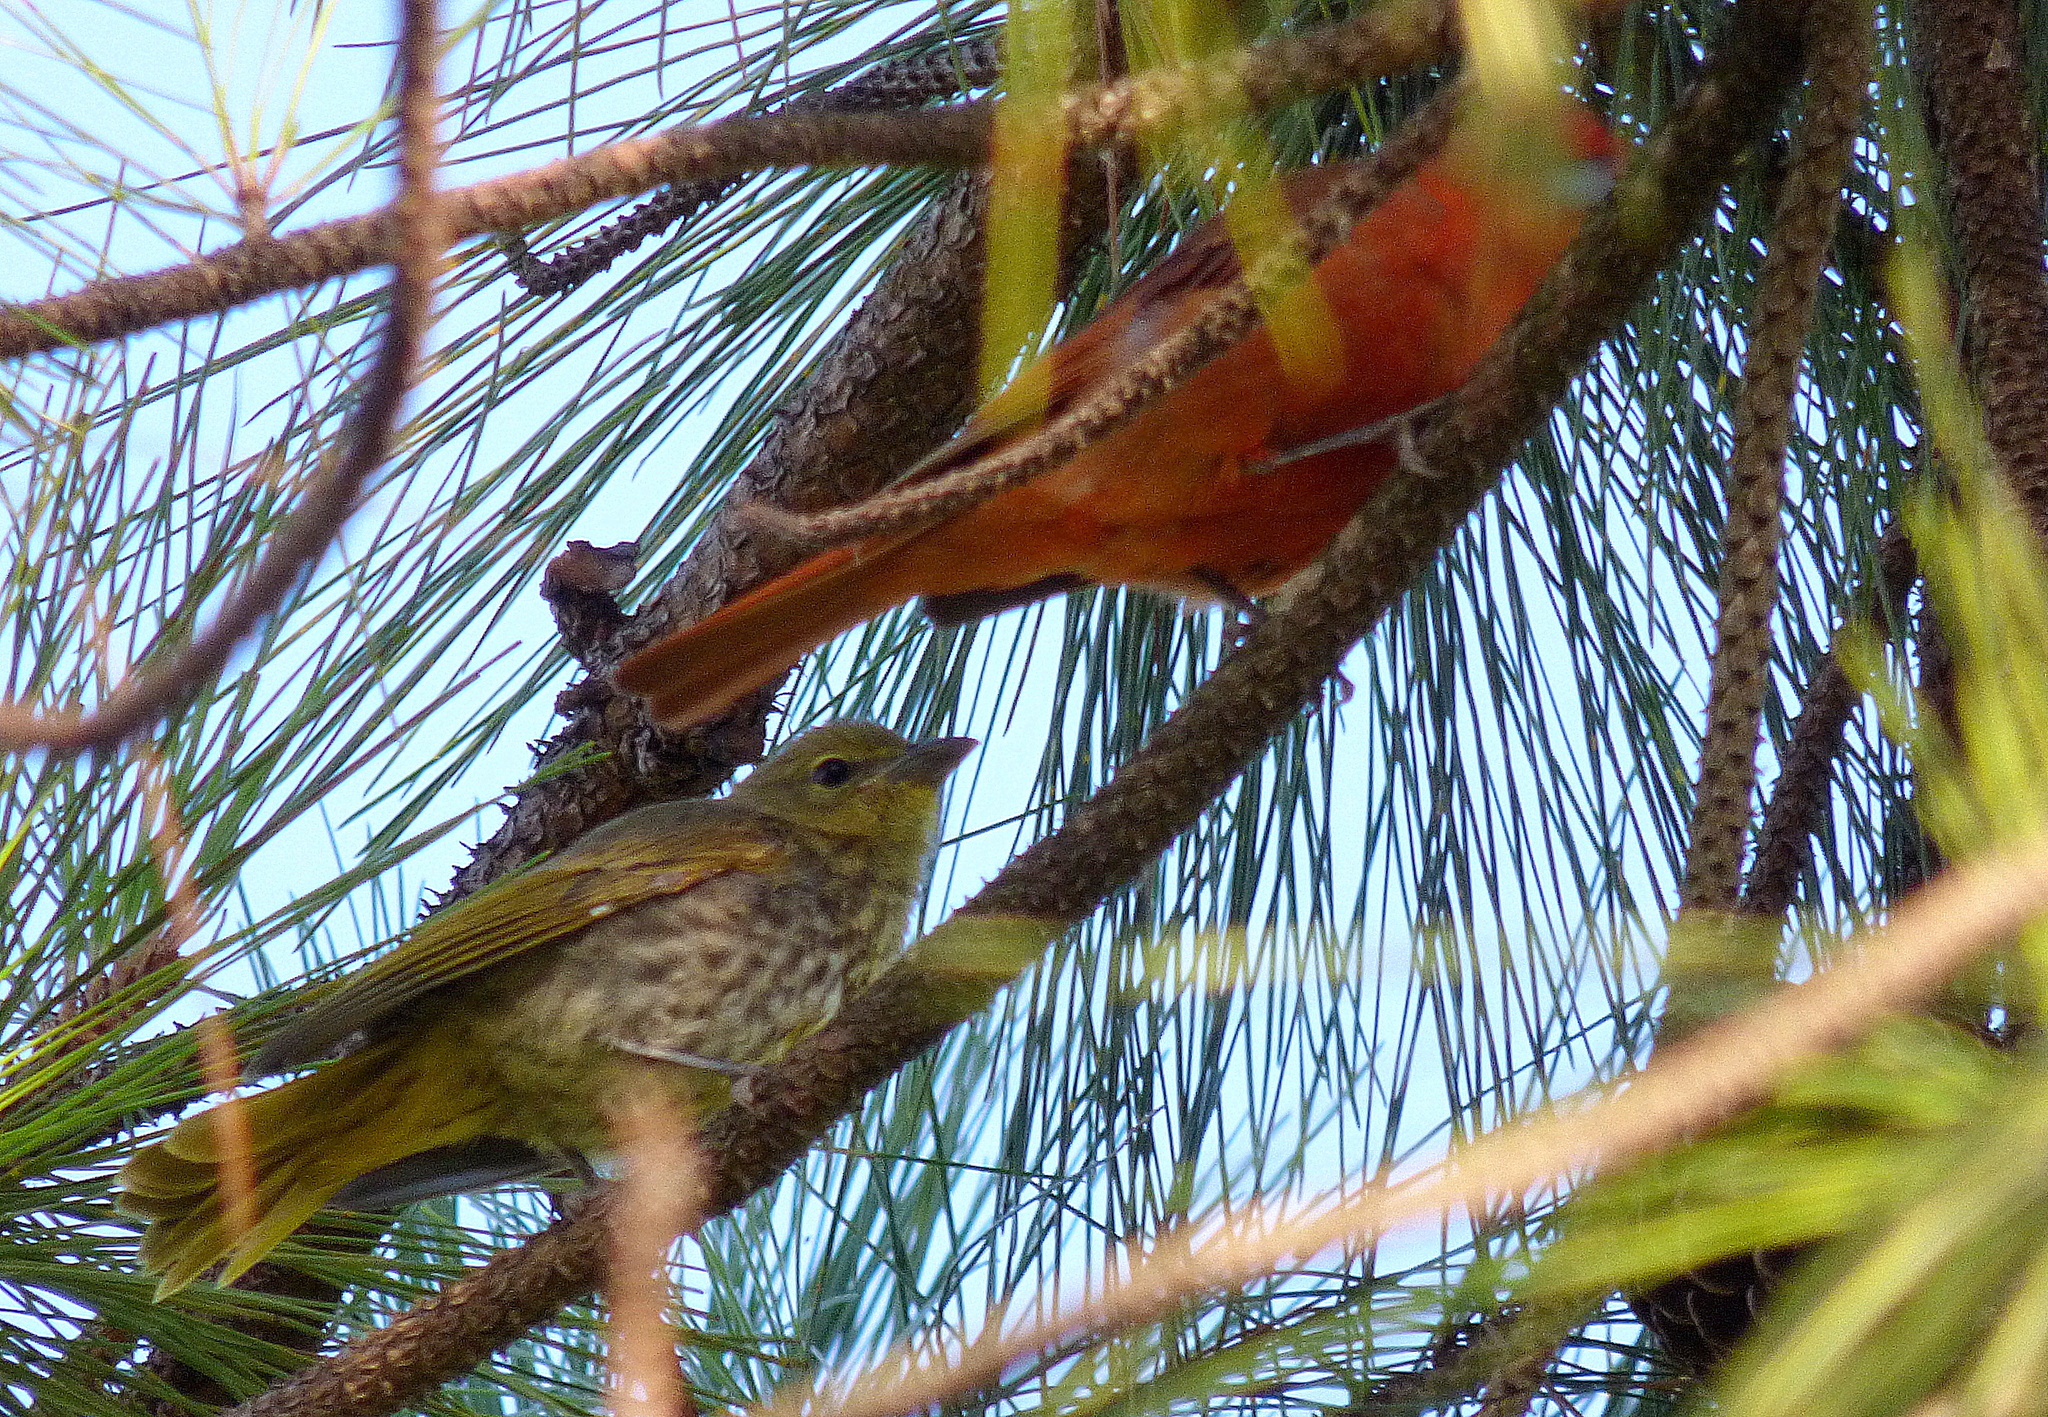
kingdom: Animalia
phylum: Chordata
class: Aves
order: Passeriformes
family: Cardinalidae
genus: Piranga
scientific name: Piranga flava
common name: Red tanager
